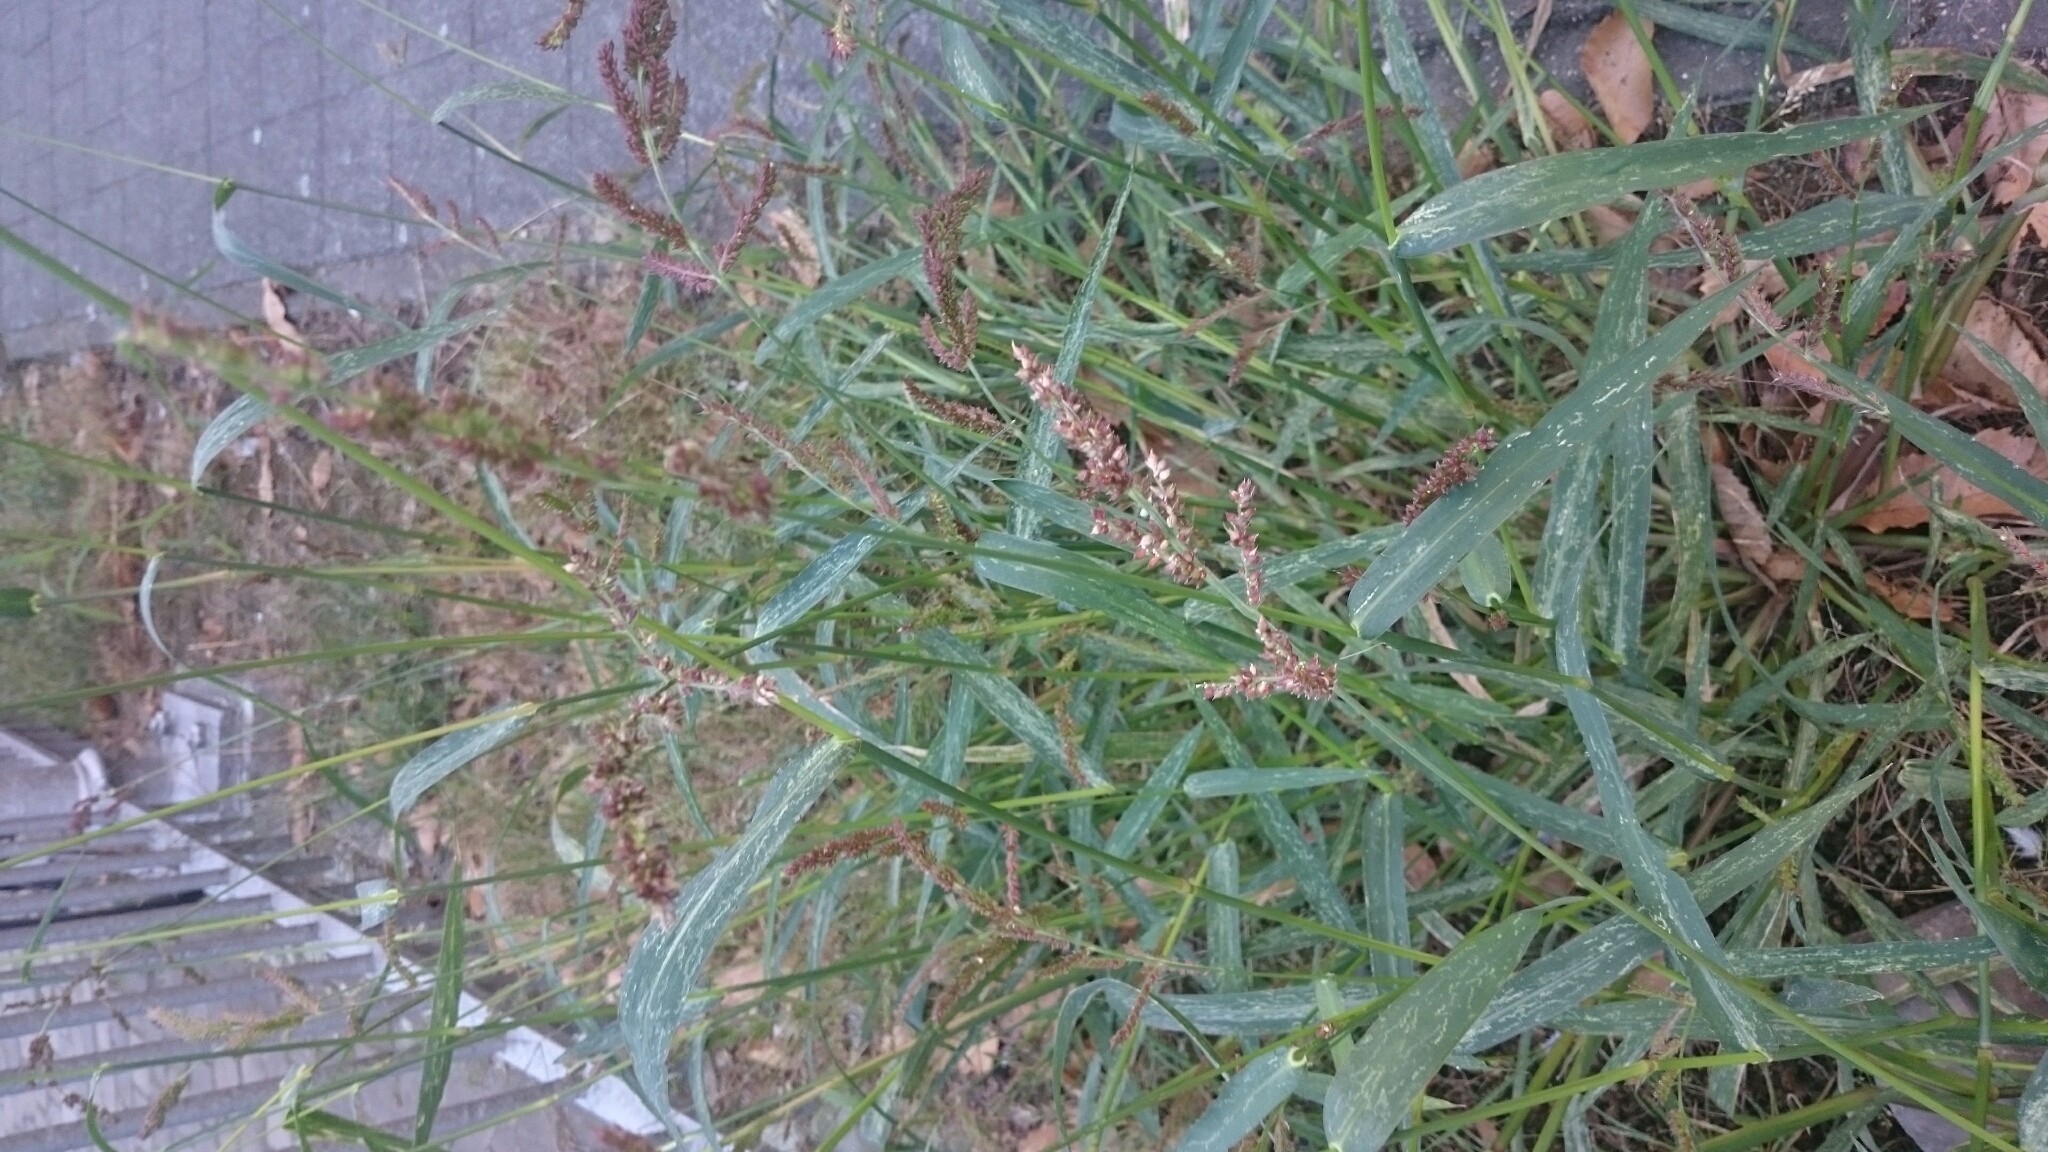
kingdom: Plantae
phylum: Tracheophyta
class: Liliopsida
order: Poales
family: Poaceae
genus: Echinochloa
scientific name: Echinochloa crus-galli
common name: Cockspur
